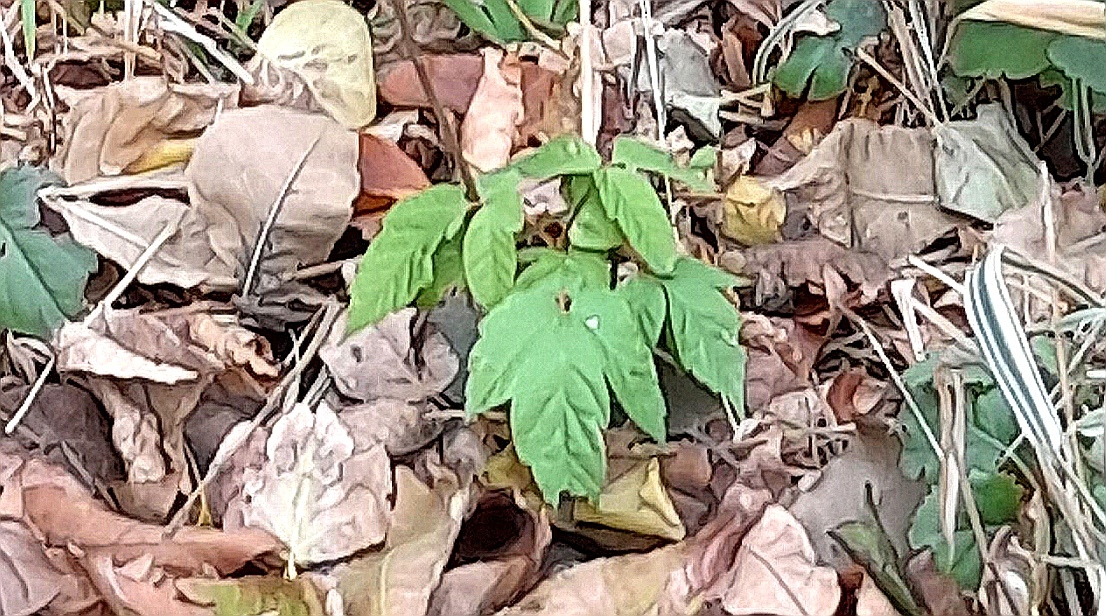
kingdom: Plantae
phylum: Tracheophyta
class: Magnoliopsida
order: Sapindales
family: Sapindaceae
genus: Acer
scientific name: Acer negundo
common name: Ashleaf maple
